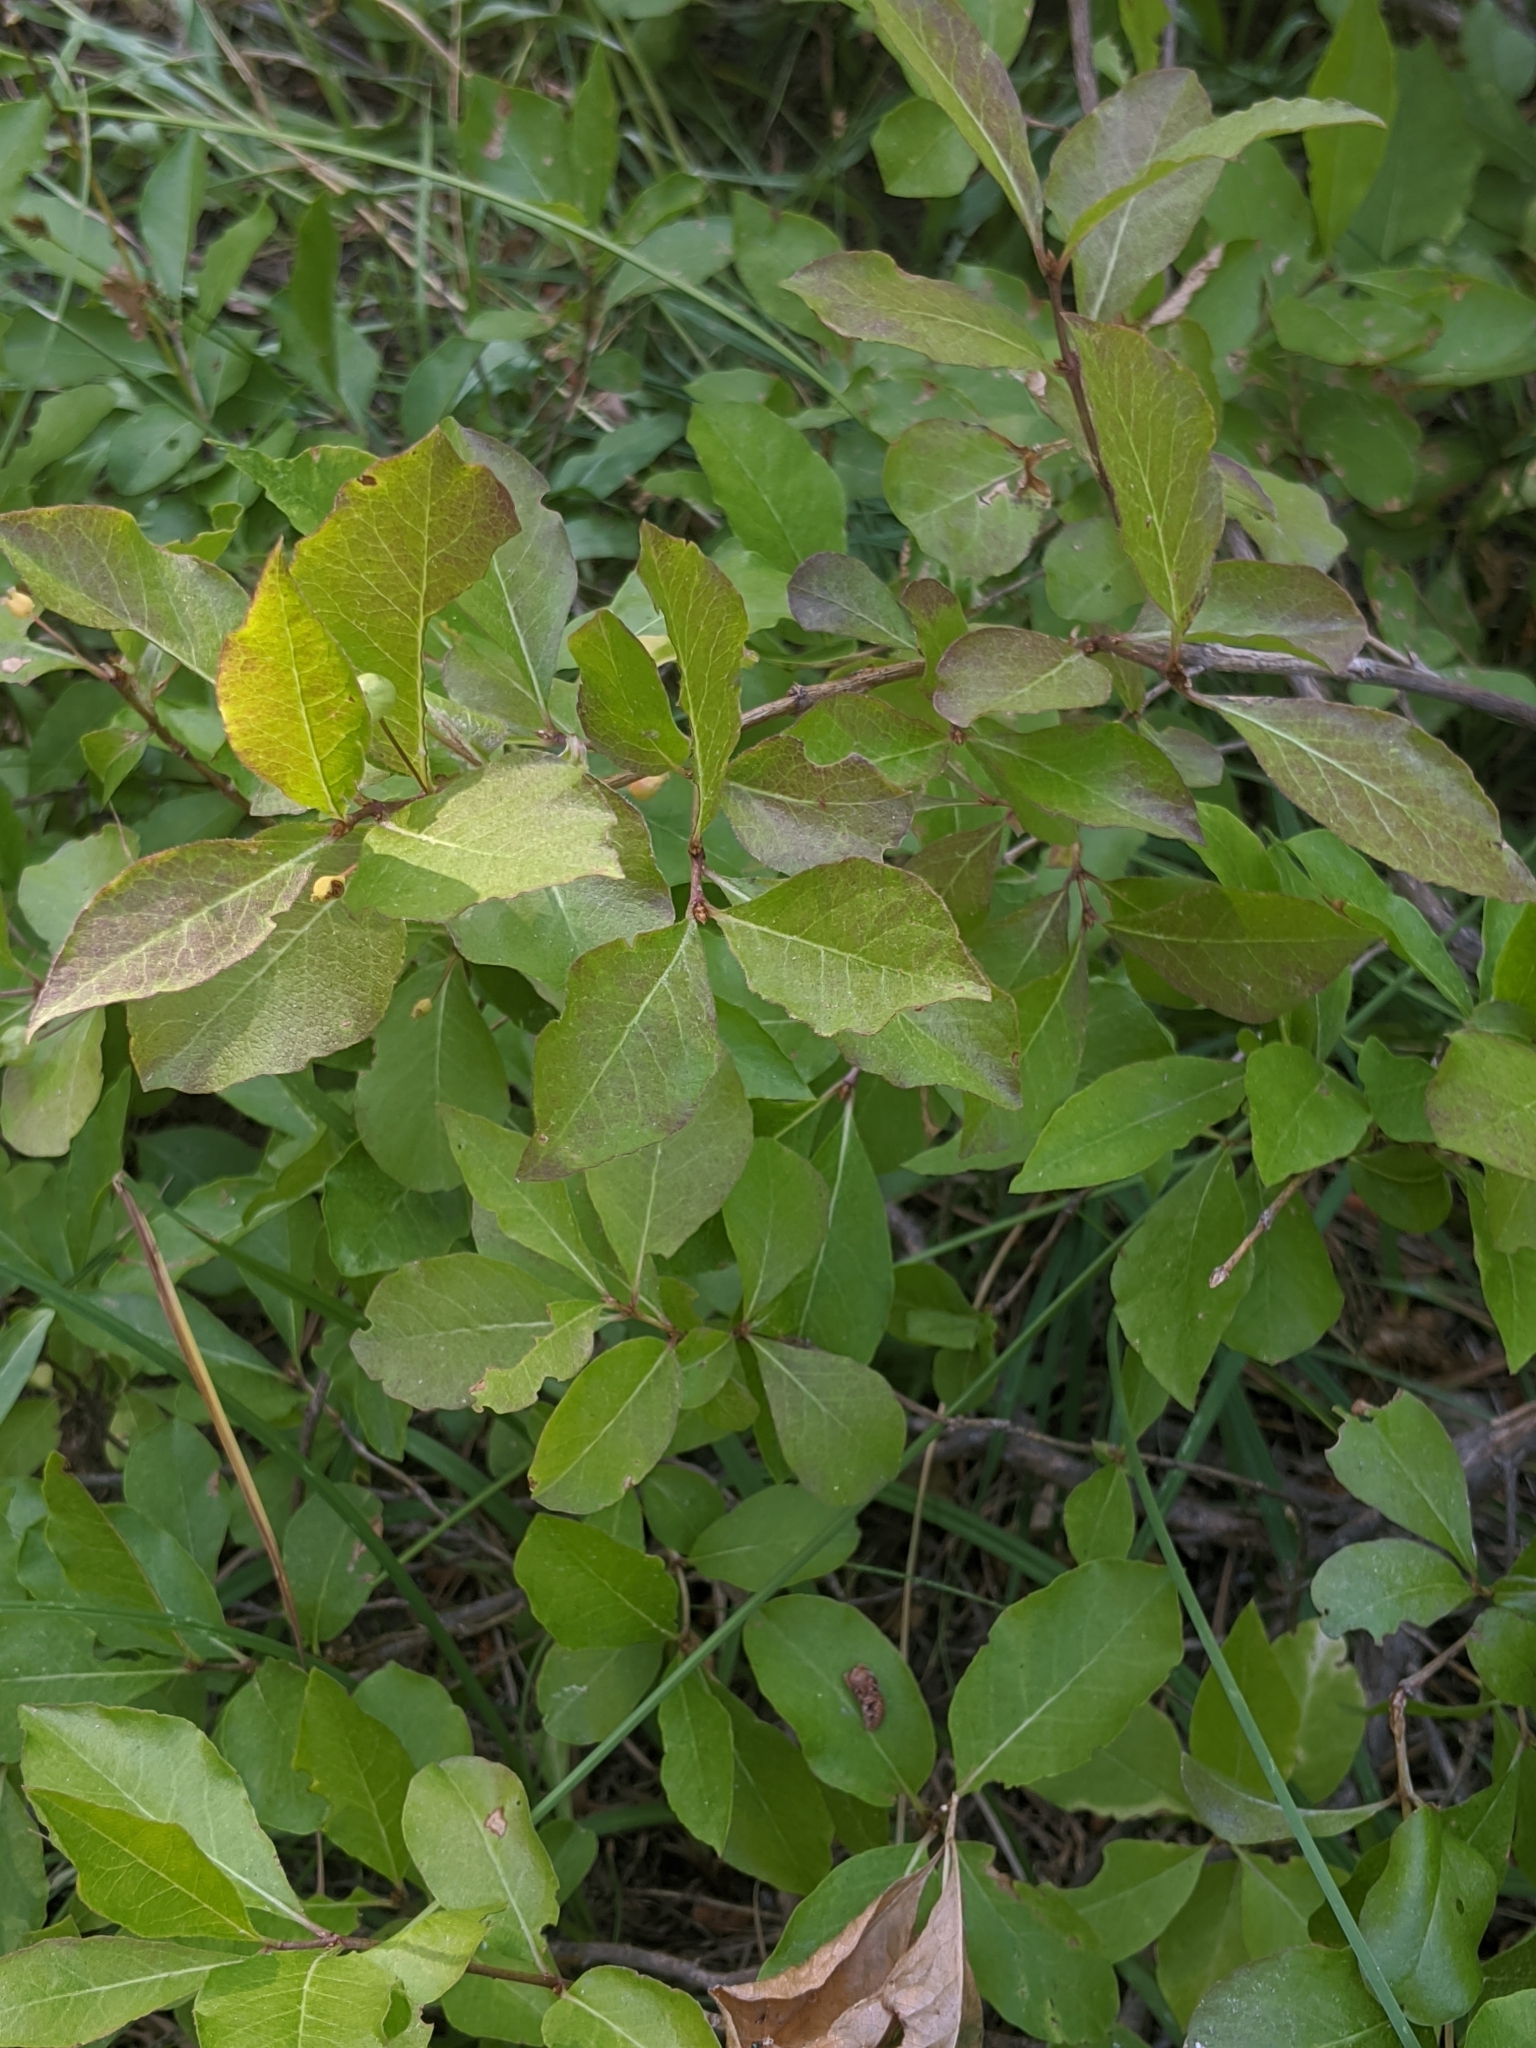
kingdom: Plantae
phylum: Tracheophyta
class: Magnoliopsida
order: Dipsacales
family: Caprifoliaceae
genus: Lonicera
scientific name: Lonicera conjugialis
